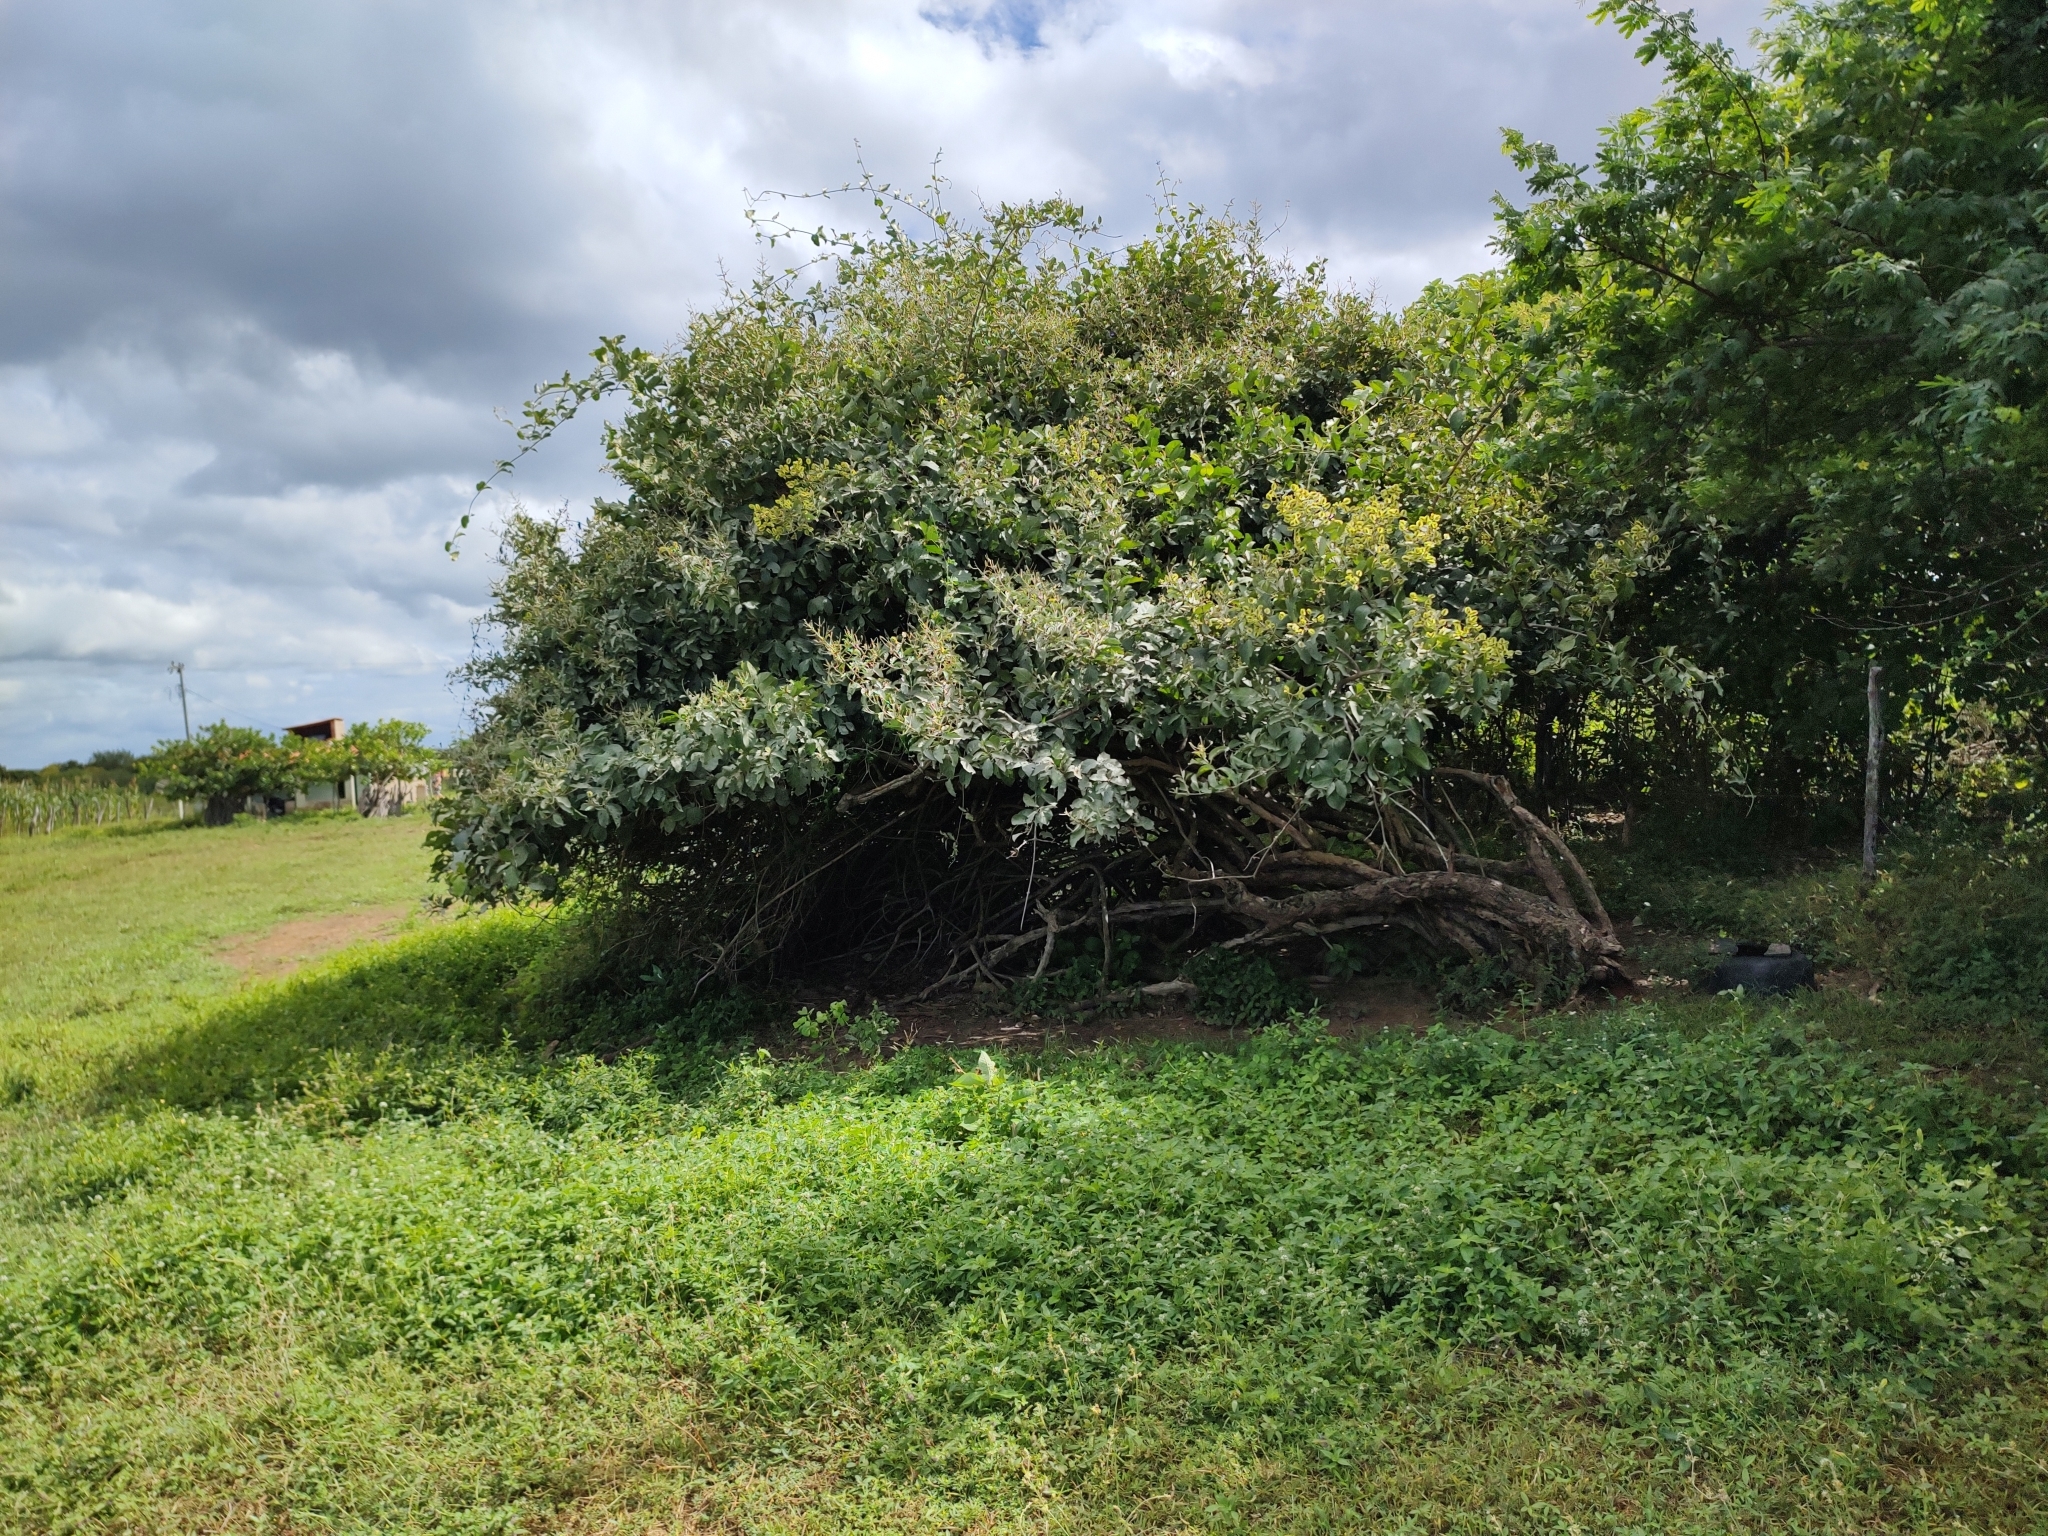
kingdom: Plantae
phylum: Tracheophyta
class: Magnoliopsida
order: Myrtales
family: Combretaceae
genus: Combretum
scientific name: Combretum leprosum
